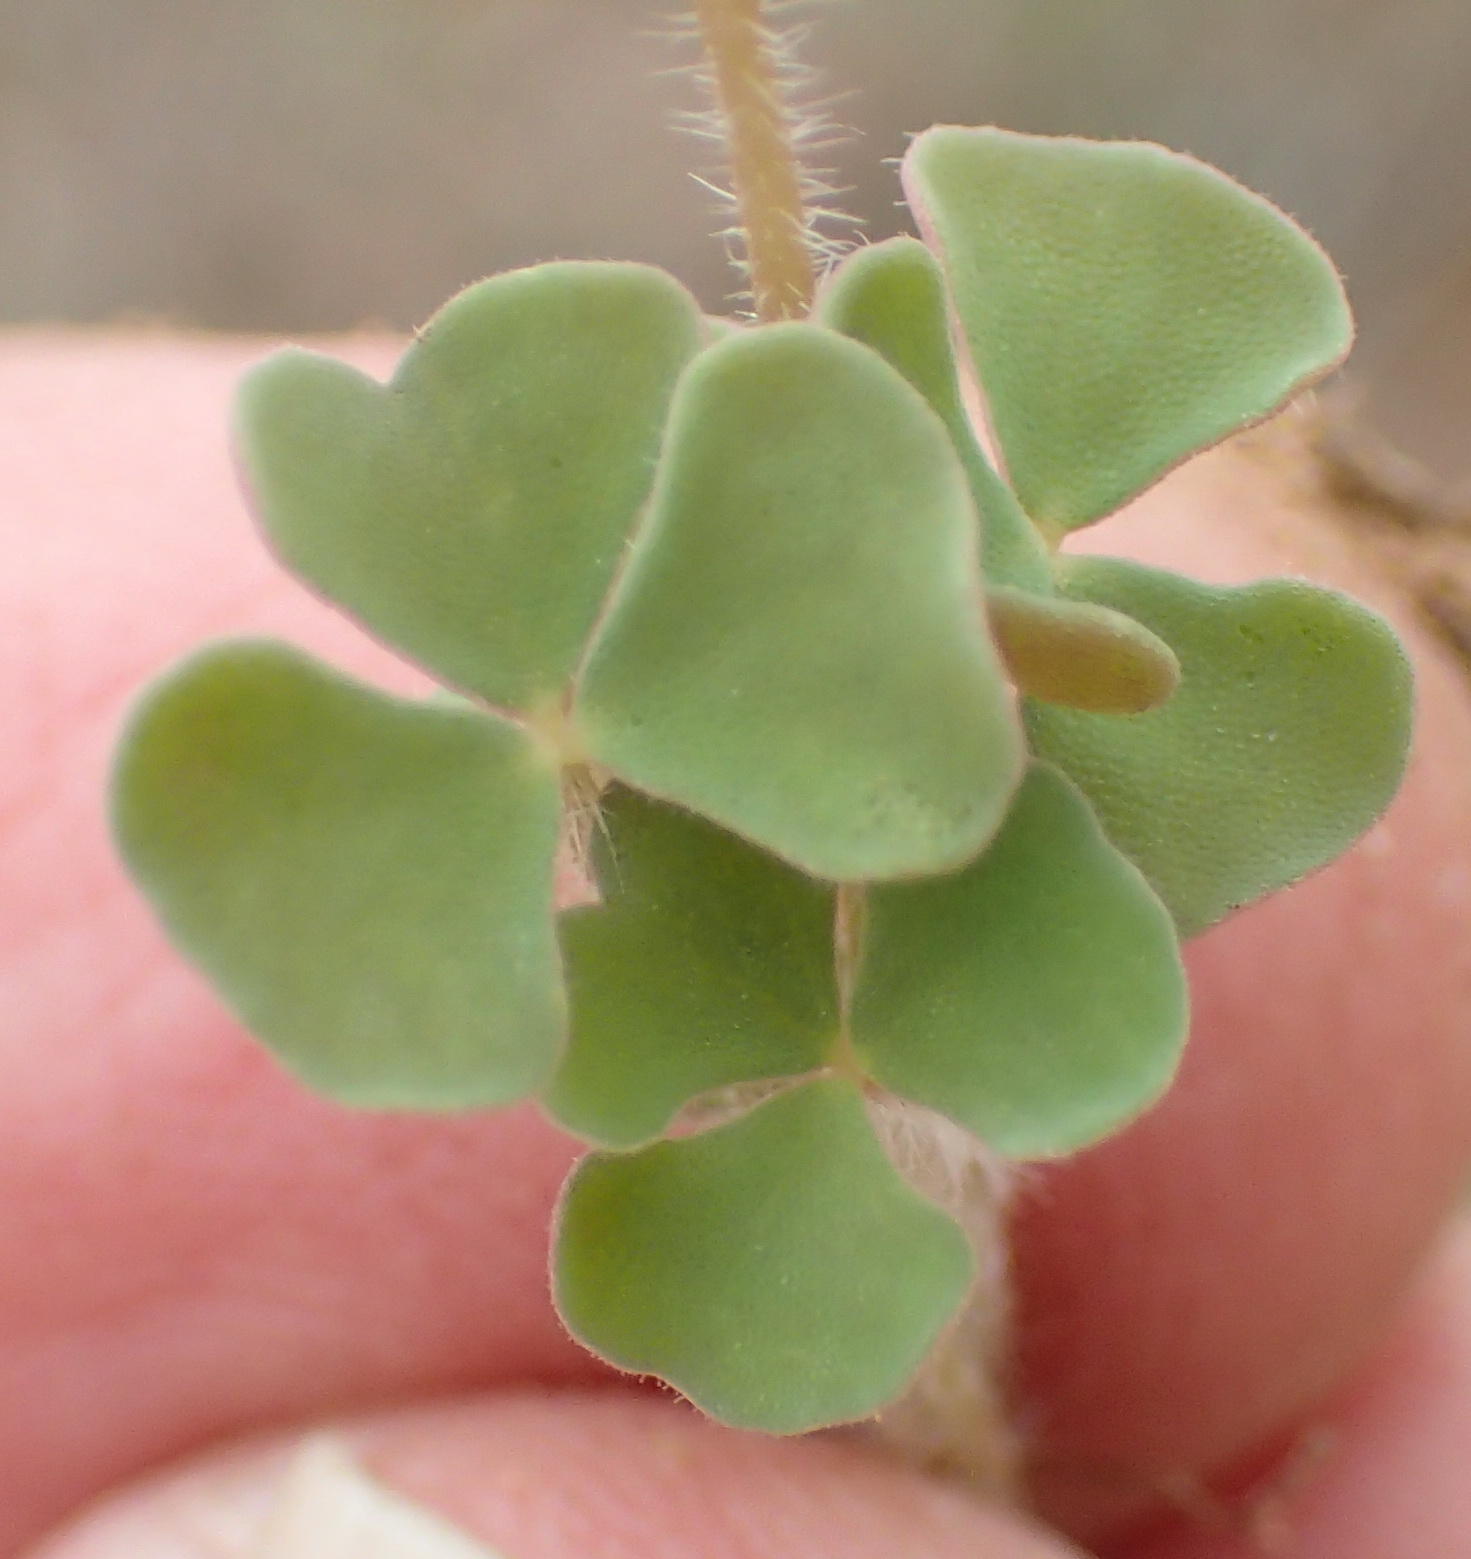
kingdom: Plantae
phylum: Tracheophyta
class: Magnoliopsida
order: Oxalidales
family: Oxalidaceae
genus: Oxalis
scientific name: Oxalis punctata
